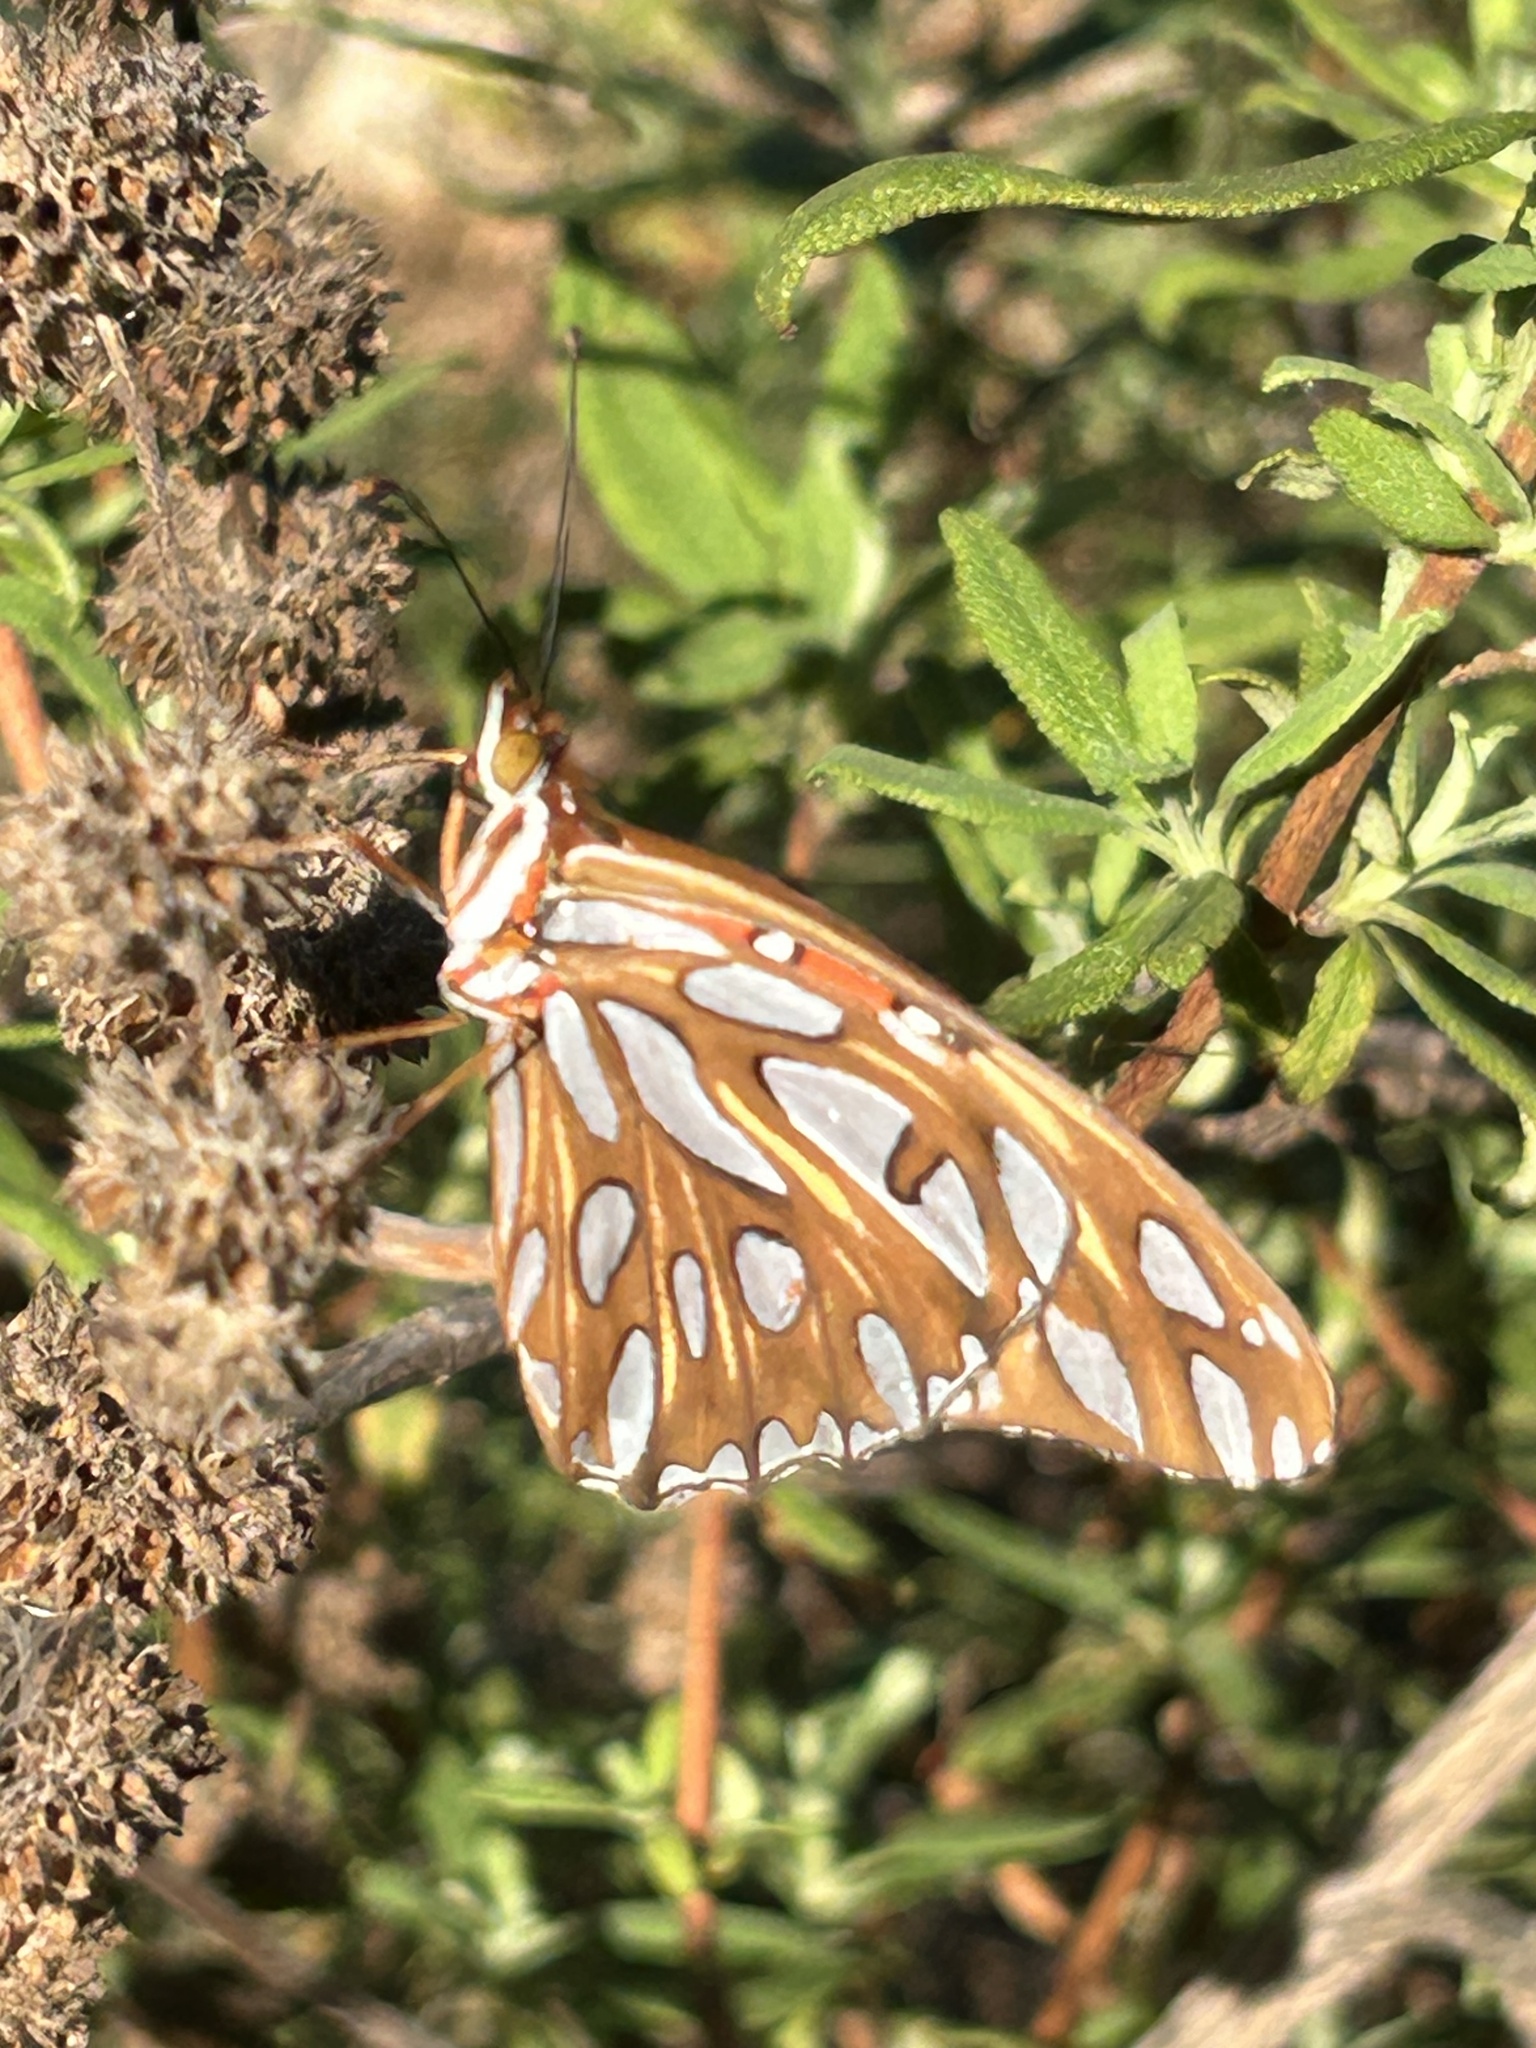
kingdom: Animalia
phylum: Arthropoda
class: Insecta
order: Lepidoptera
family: Nymphalidae
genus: Dione
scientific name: Dione vanillae
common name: Gulf fritillary
